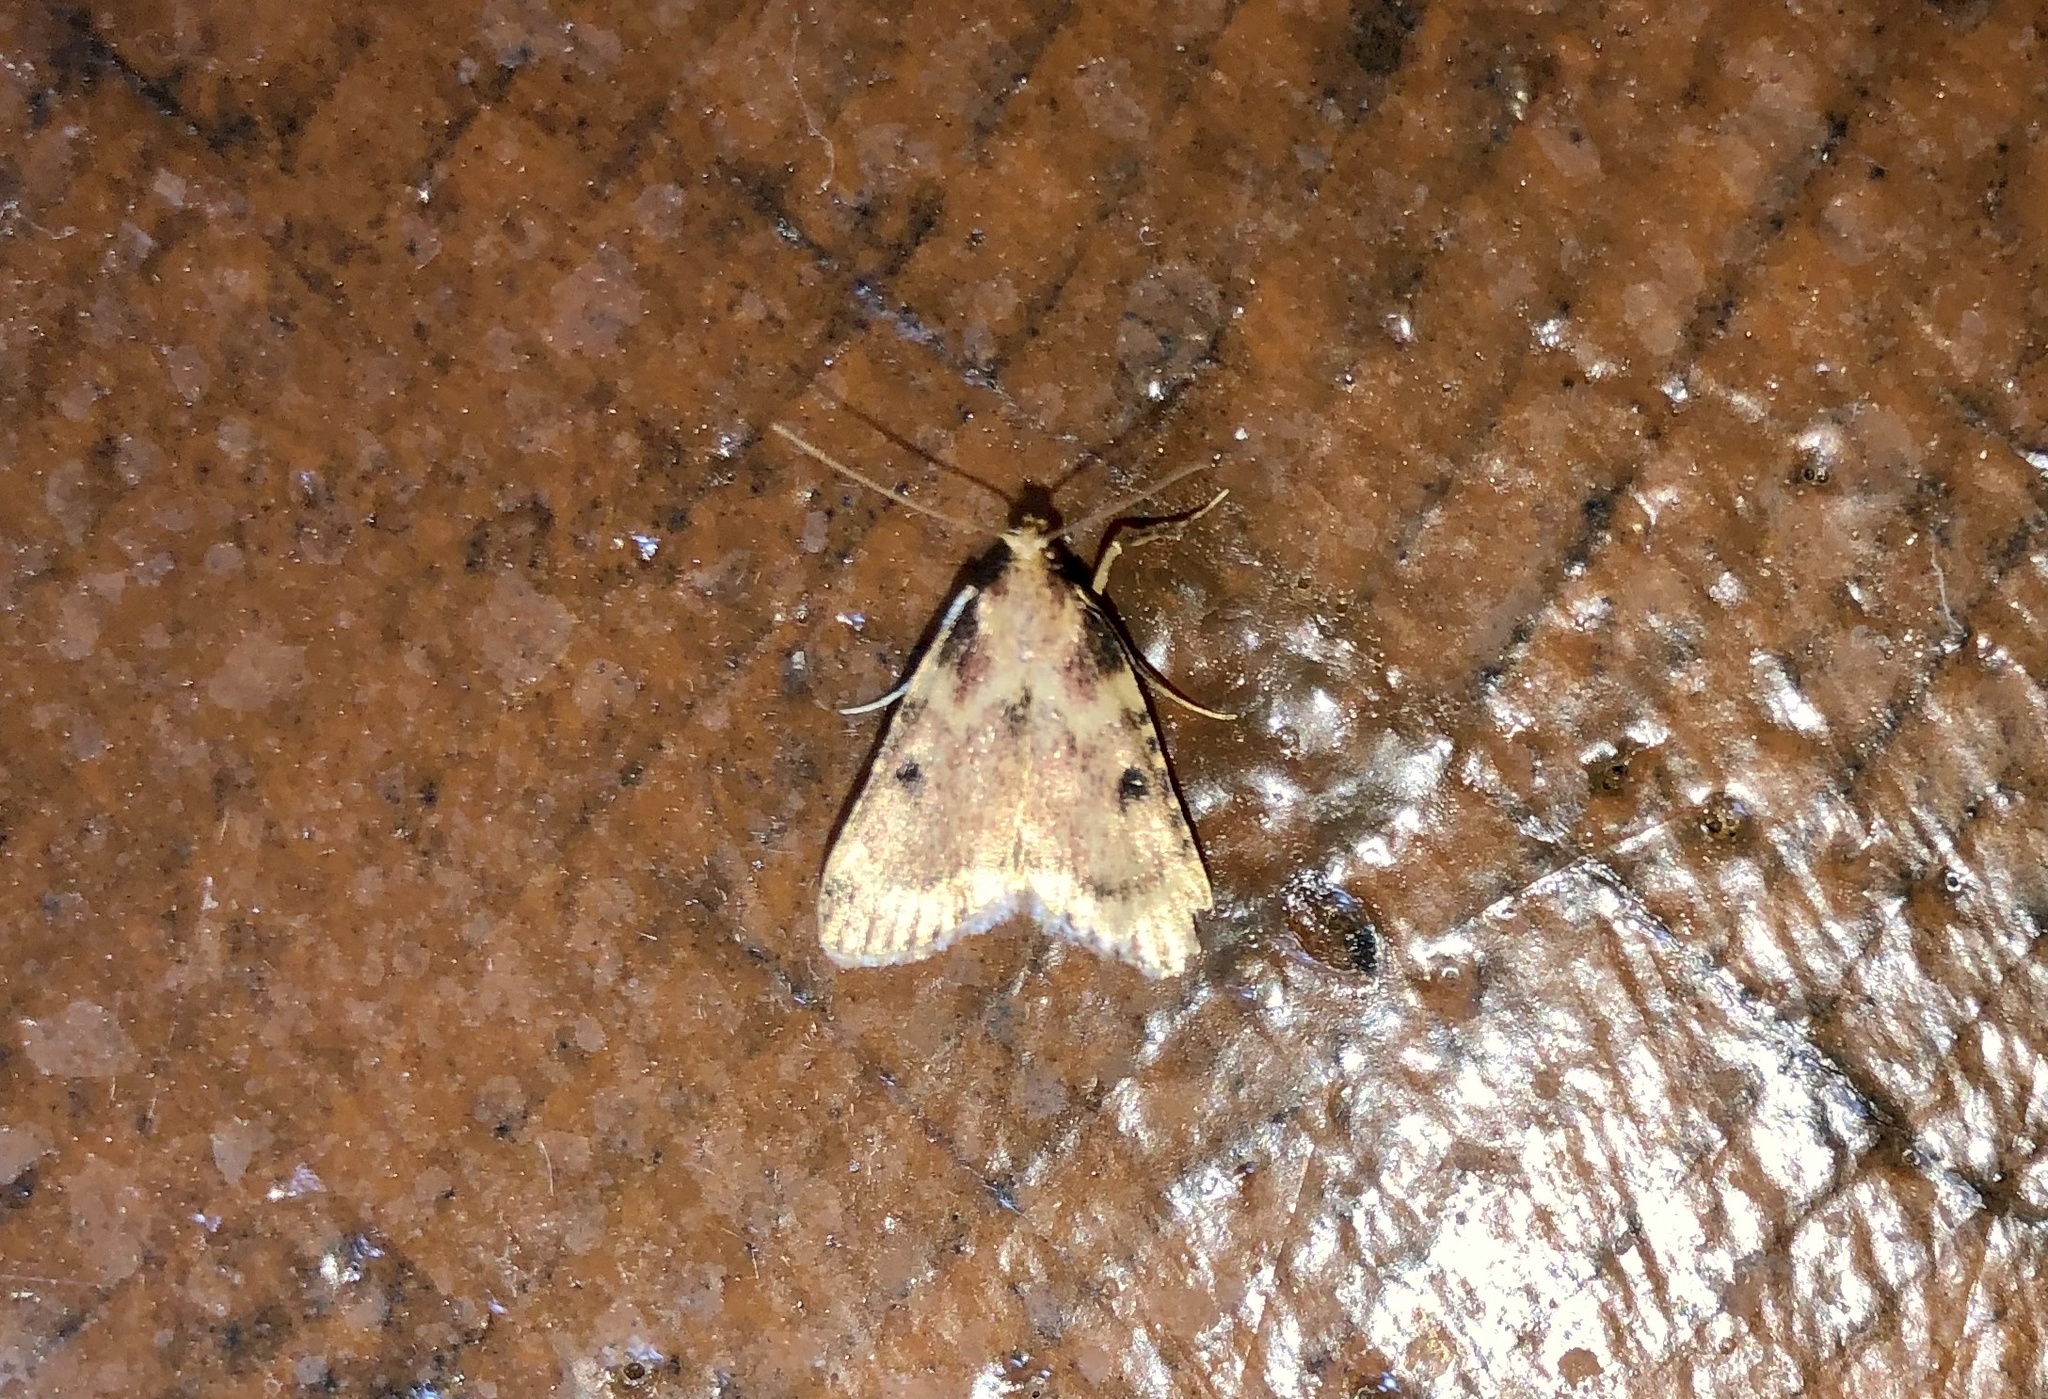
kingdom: Animalia
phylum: Arthropoda
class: Insecta
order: Lepidoptera
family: Pyralidae
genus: Aglossa
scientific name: Aglossa disciferalis
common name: Pink-masked pyralid moth
